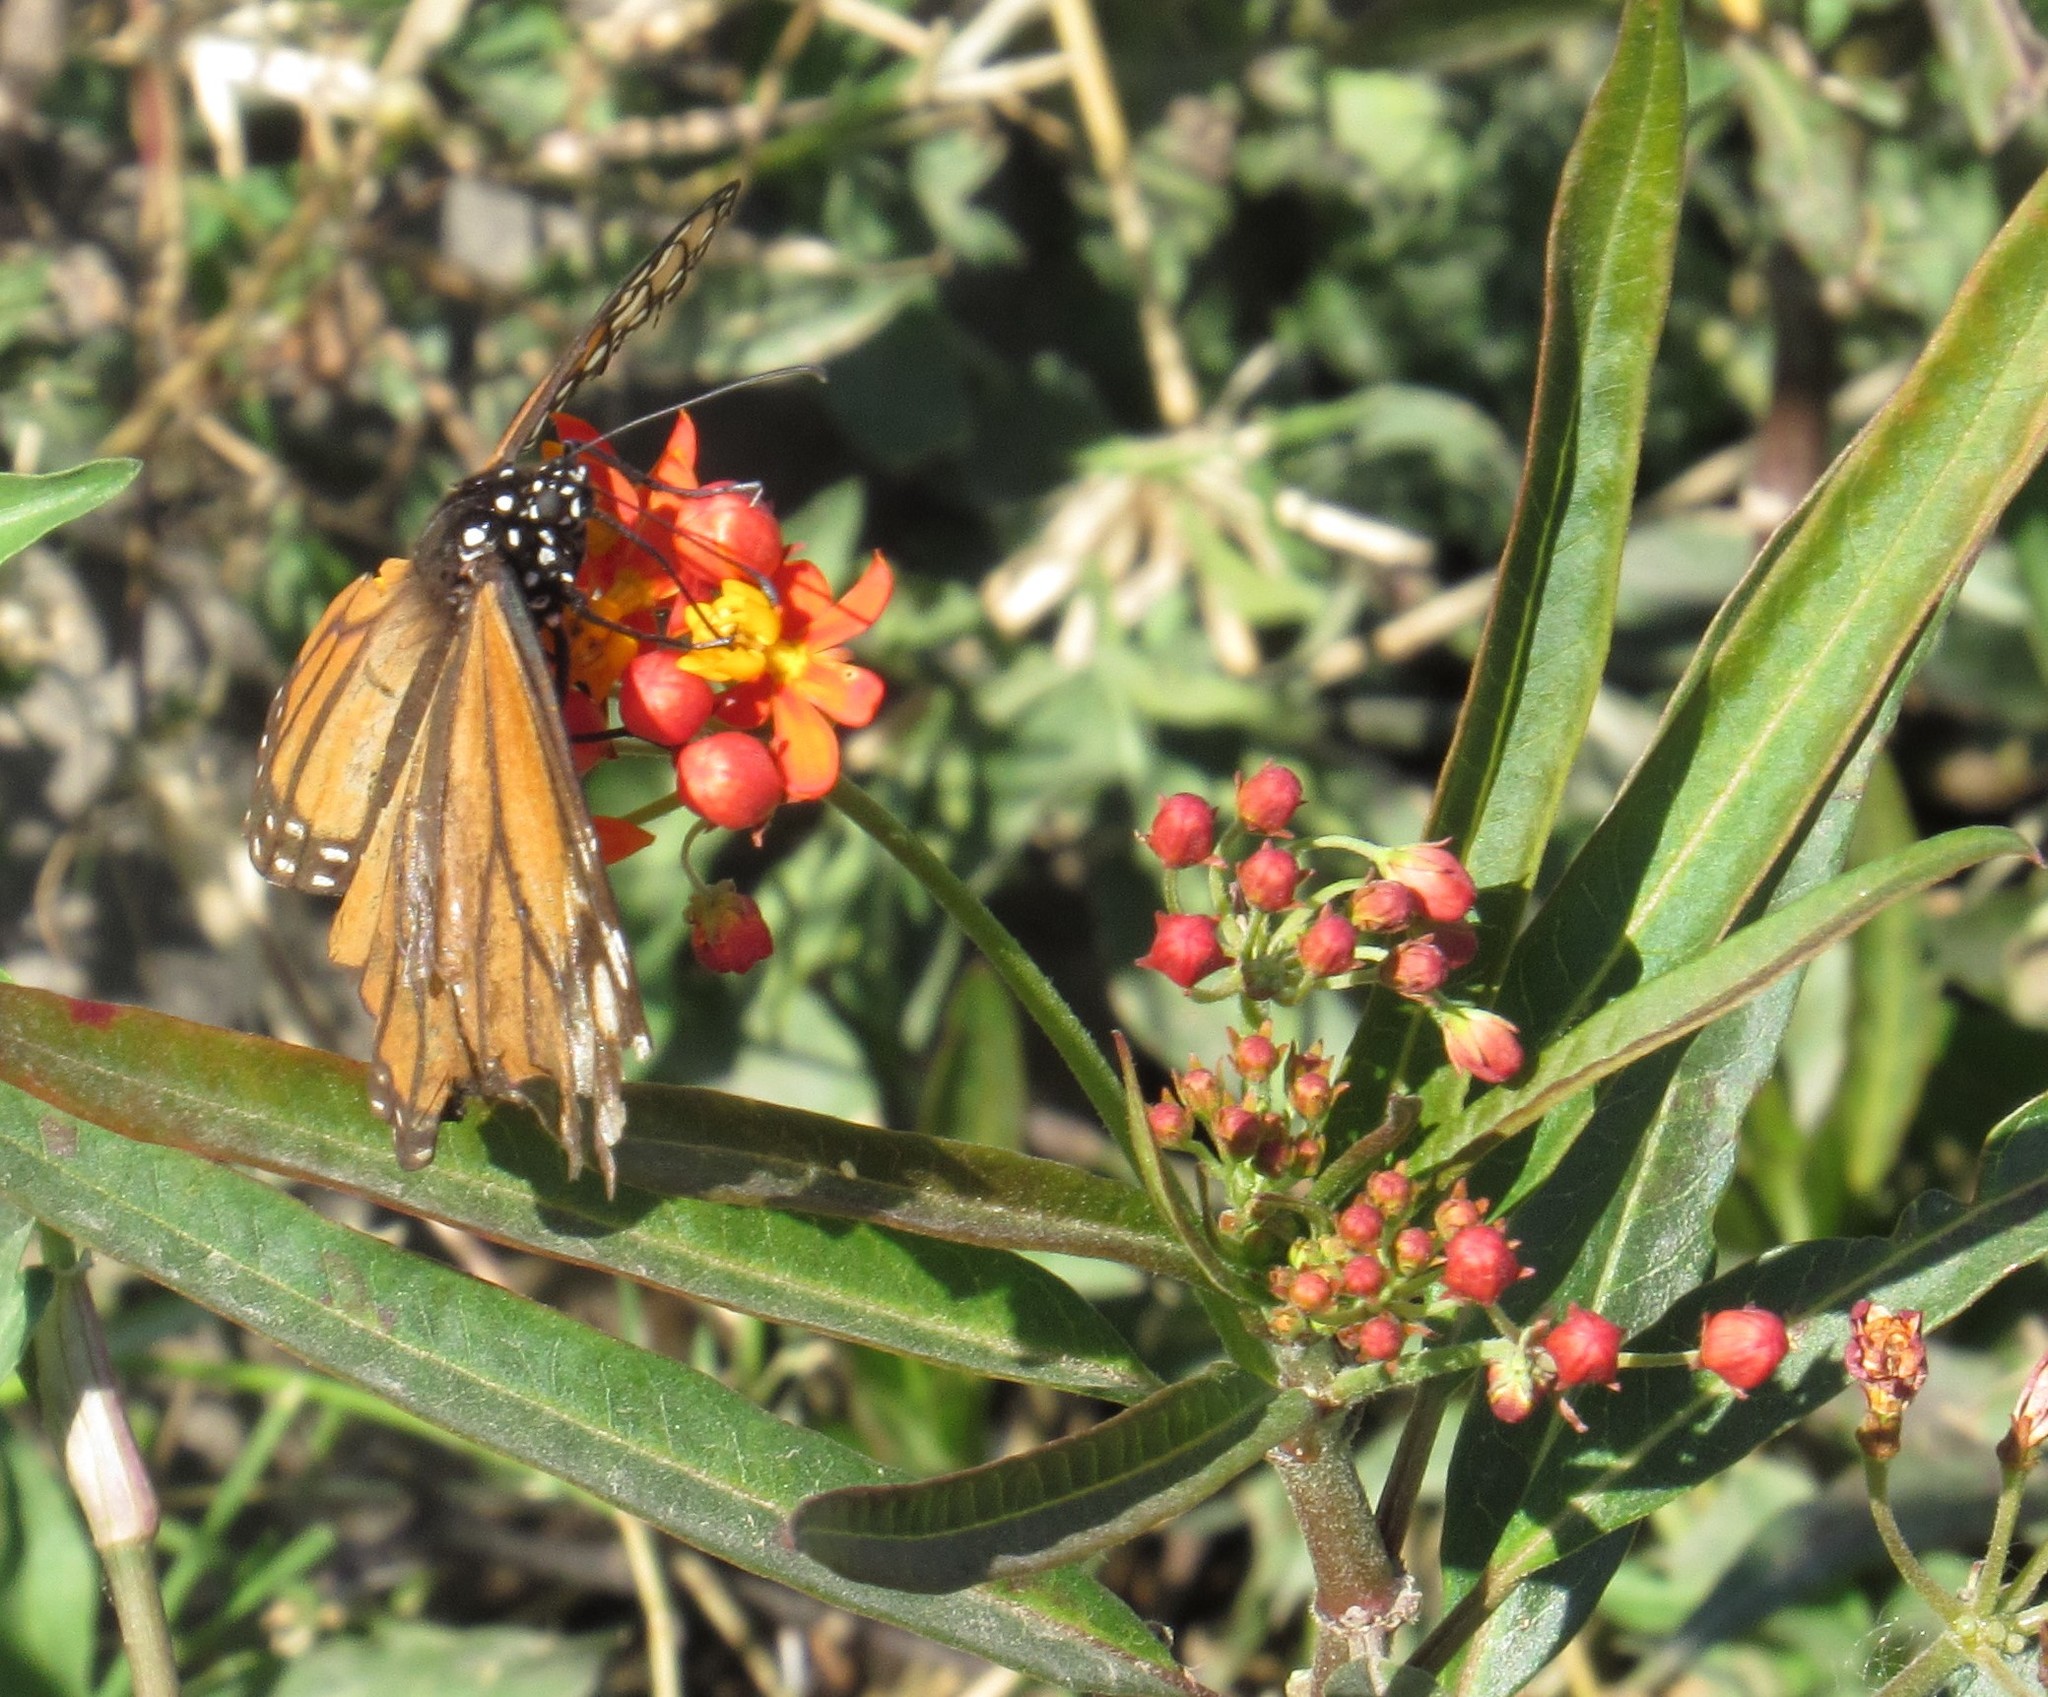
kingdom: Animalia
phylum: Arthropoda
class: Insecta
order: Lepidoptera
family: Nymphalidae
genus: Danaus
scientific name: Danaus plexippus
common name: Monarch
